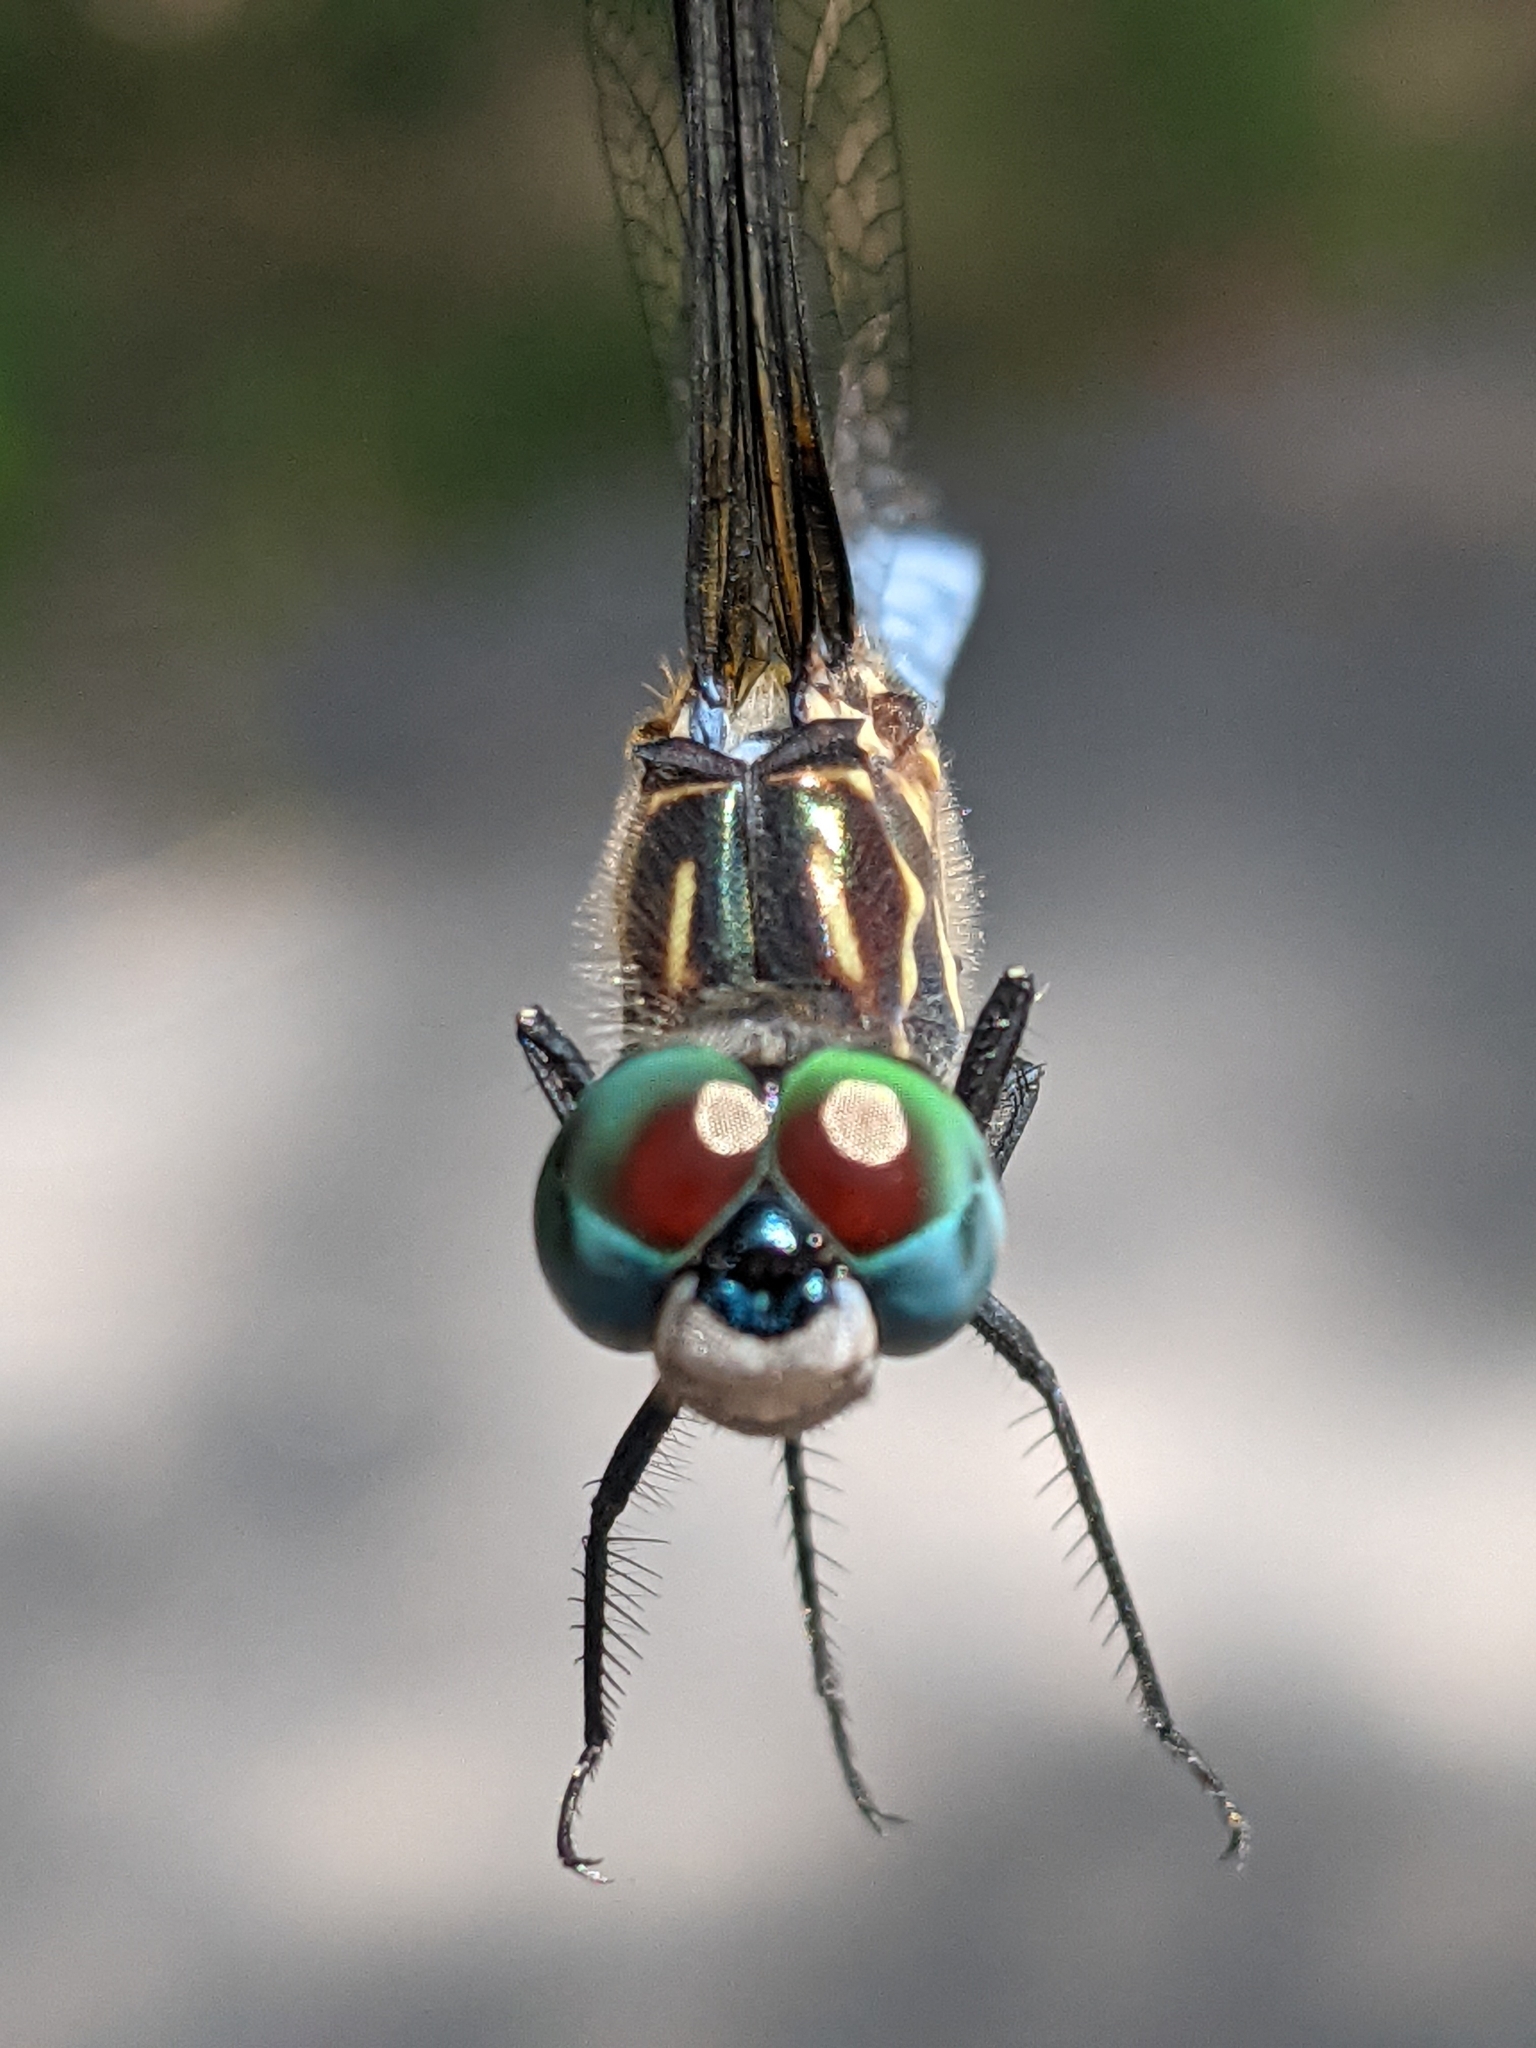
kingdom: Animalia
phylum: Arthropoda
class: Insecta
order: Odonata
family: Libellulidae
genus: Pachydiplax
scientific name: Pachydiplax longipennis
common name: Blue dasher
